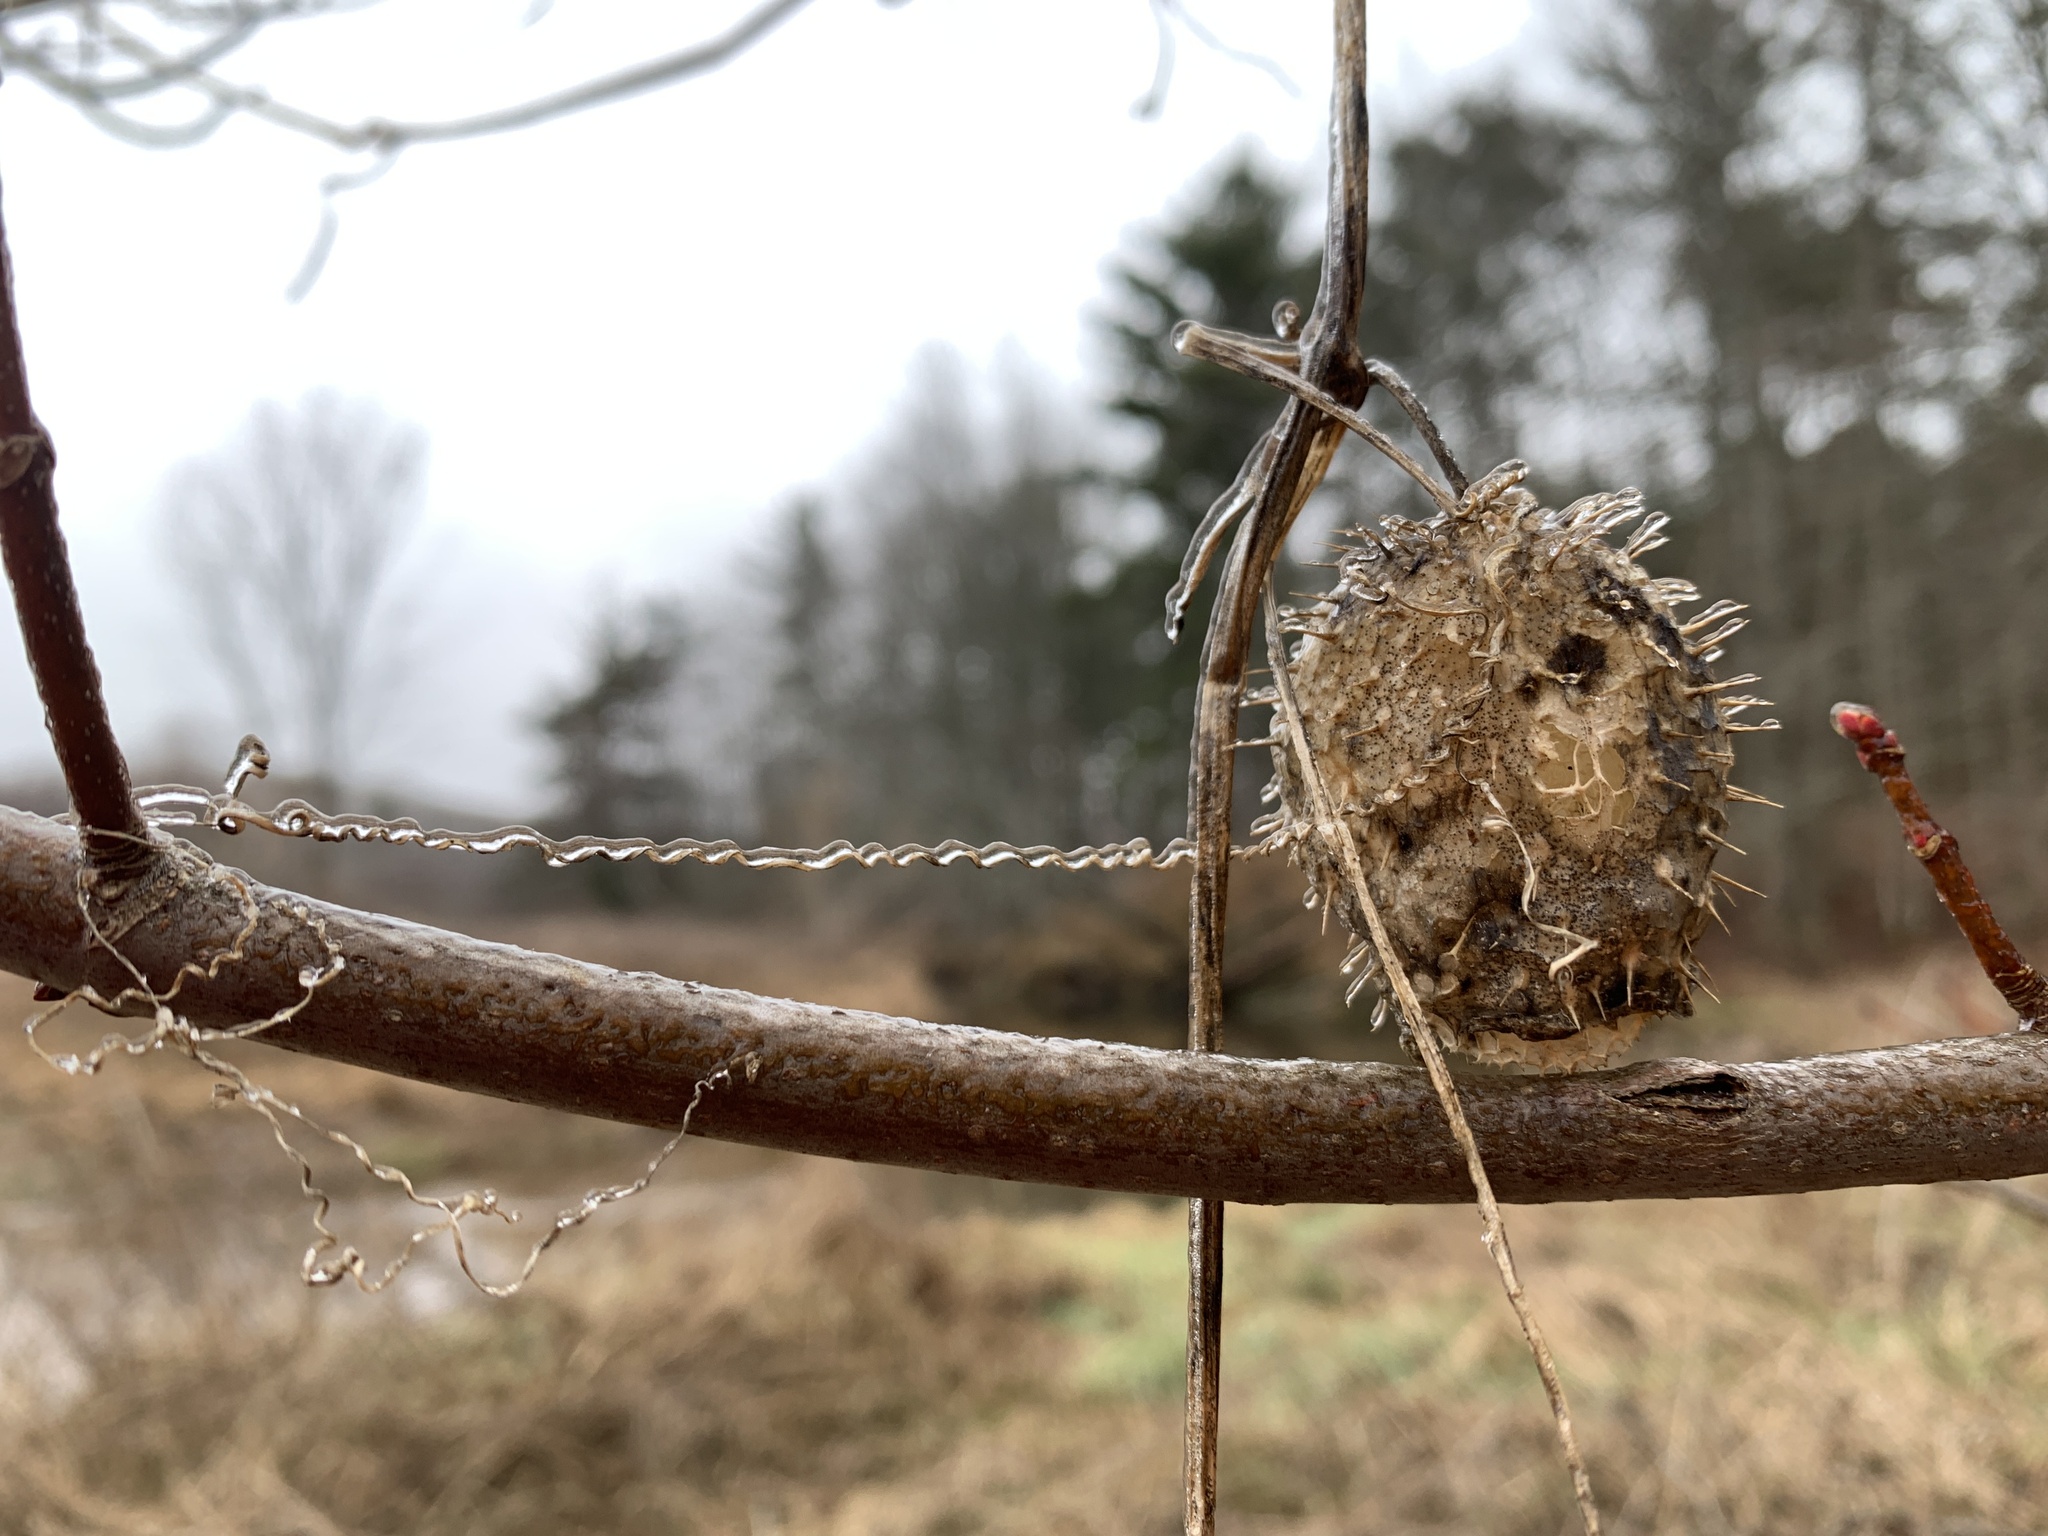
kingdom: Plantae
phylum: Tracheophyta
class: Magnoliopsida
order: Cucurbitales
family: Cucurbitaceae
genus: Echinocystis
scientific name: Echinocystis lobata
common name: Wild cucumber
